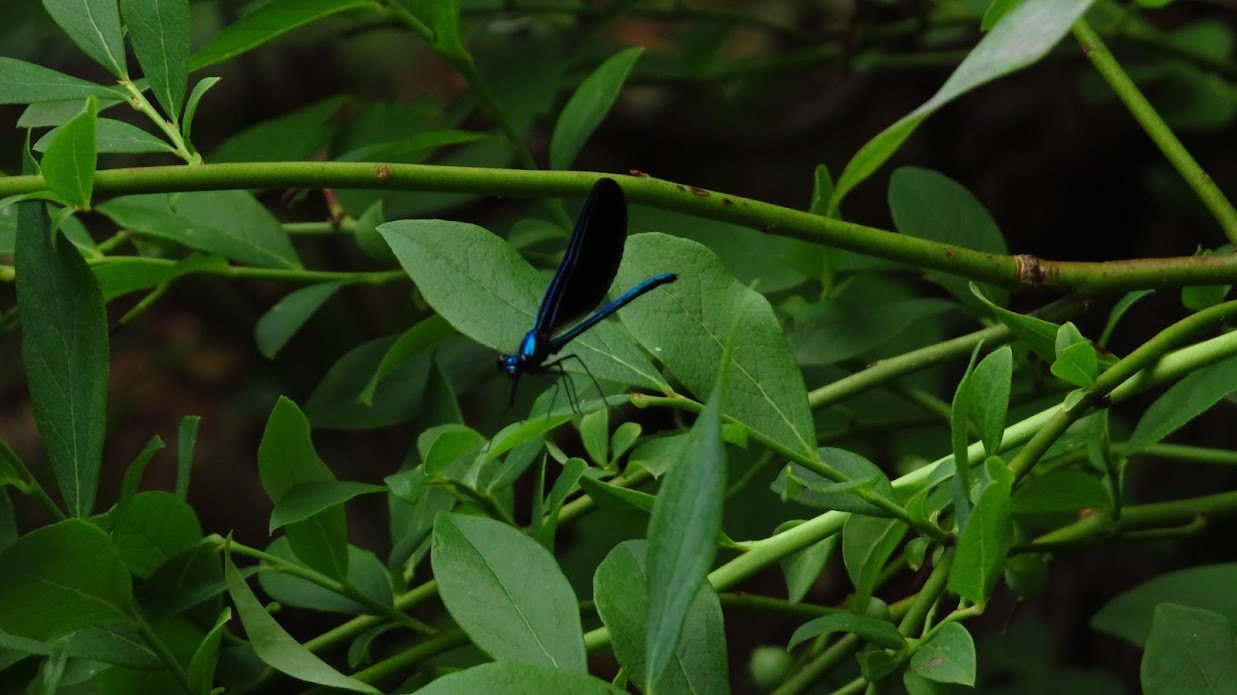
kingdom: Animalia
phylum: Arthropoda
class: Insecta
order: Odonata
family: Calopterygidae
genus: Calopteryx
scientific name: Calopteryx maculata
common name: Ebony jewelwing
